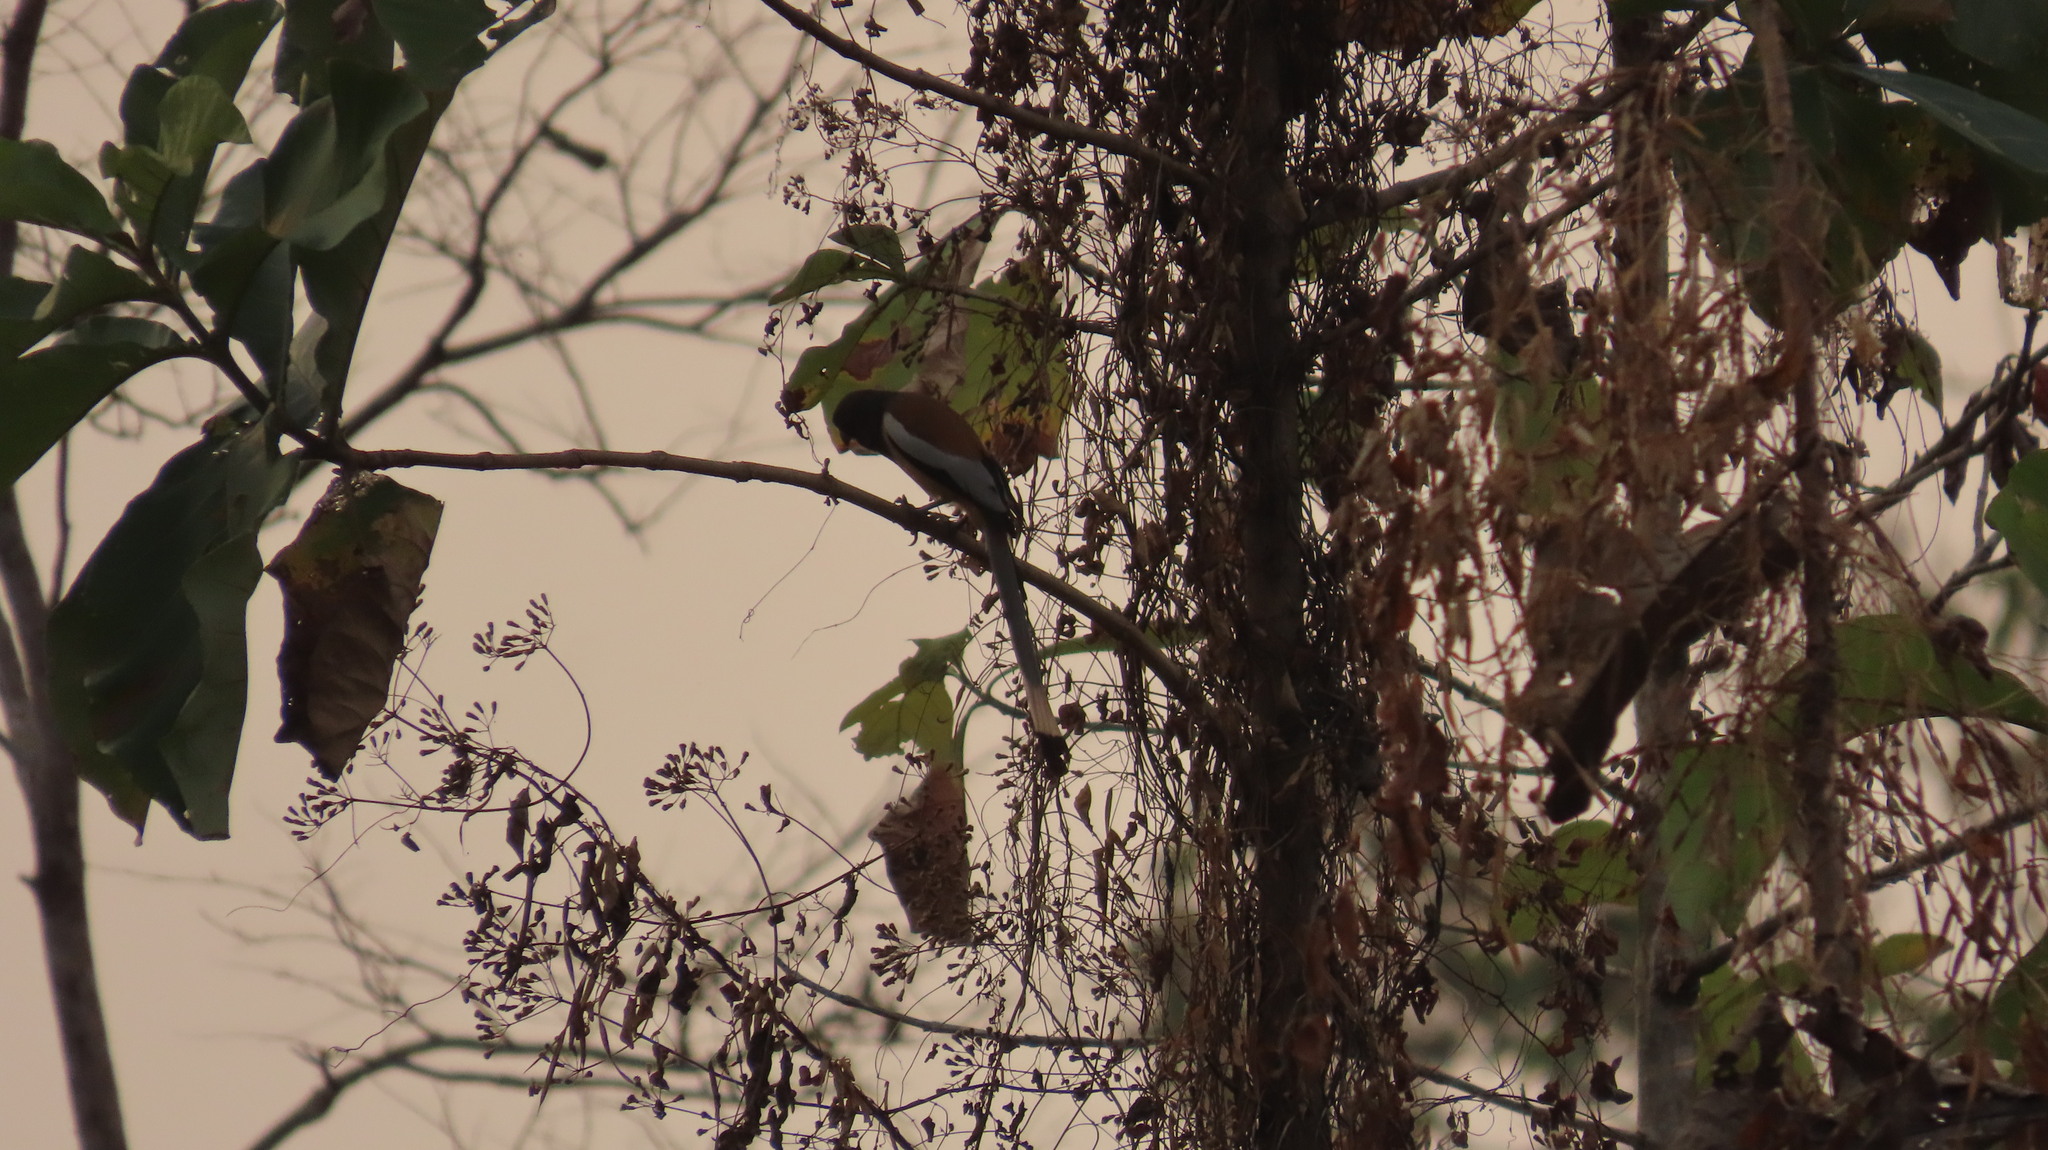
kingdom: Animalia
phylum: Chordata
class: Aves
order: Passeriformes
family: Corvidae
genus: Dendrocitta
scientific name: Dendrocitta vagabunda
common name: Rufous treepie
